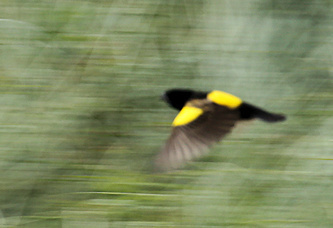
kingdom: Animalia
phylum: Chordata
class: Aves
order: Passeriformes
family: Ploceidae
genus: Euplectes
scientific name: Euplectes capensis
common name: Yellow bishop
